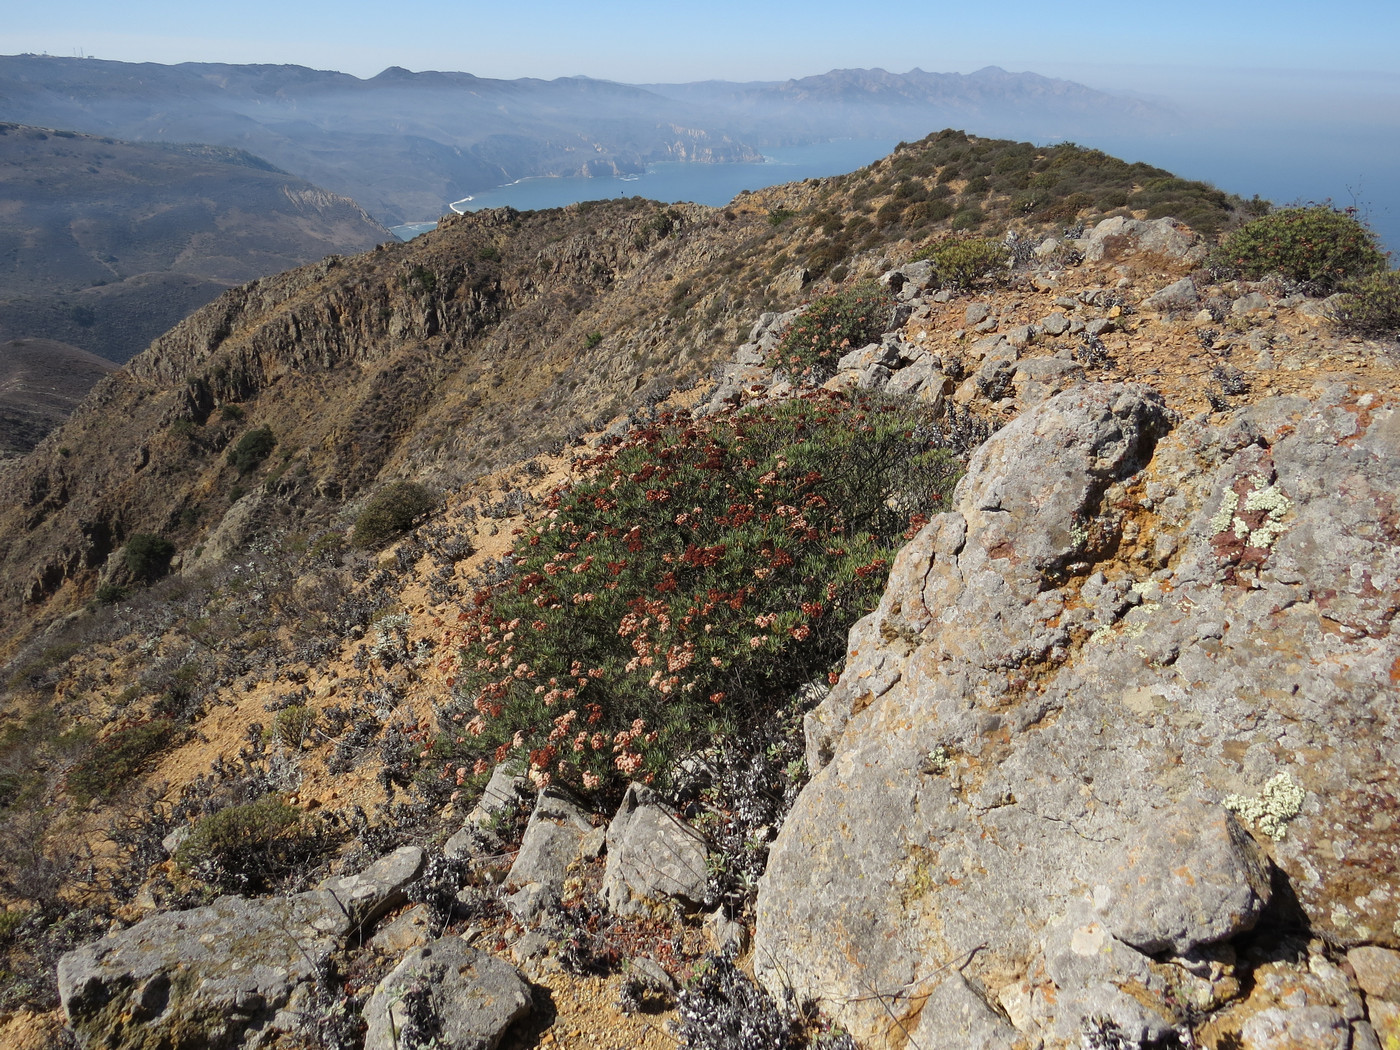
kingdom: Plantae
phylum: Tracheophyta
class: Magnoliopsida
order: Caryophyllales
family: Polygonaceae
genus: Eriogonum
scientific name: Eriogonum arborescens
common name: Island buckwheat
